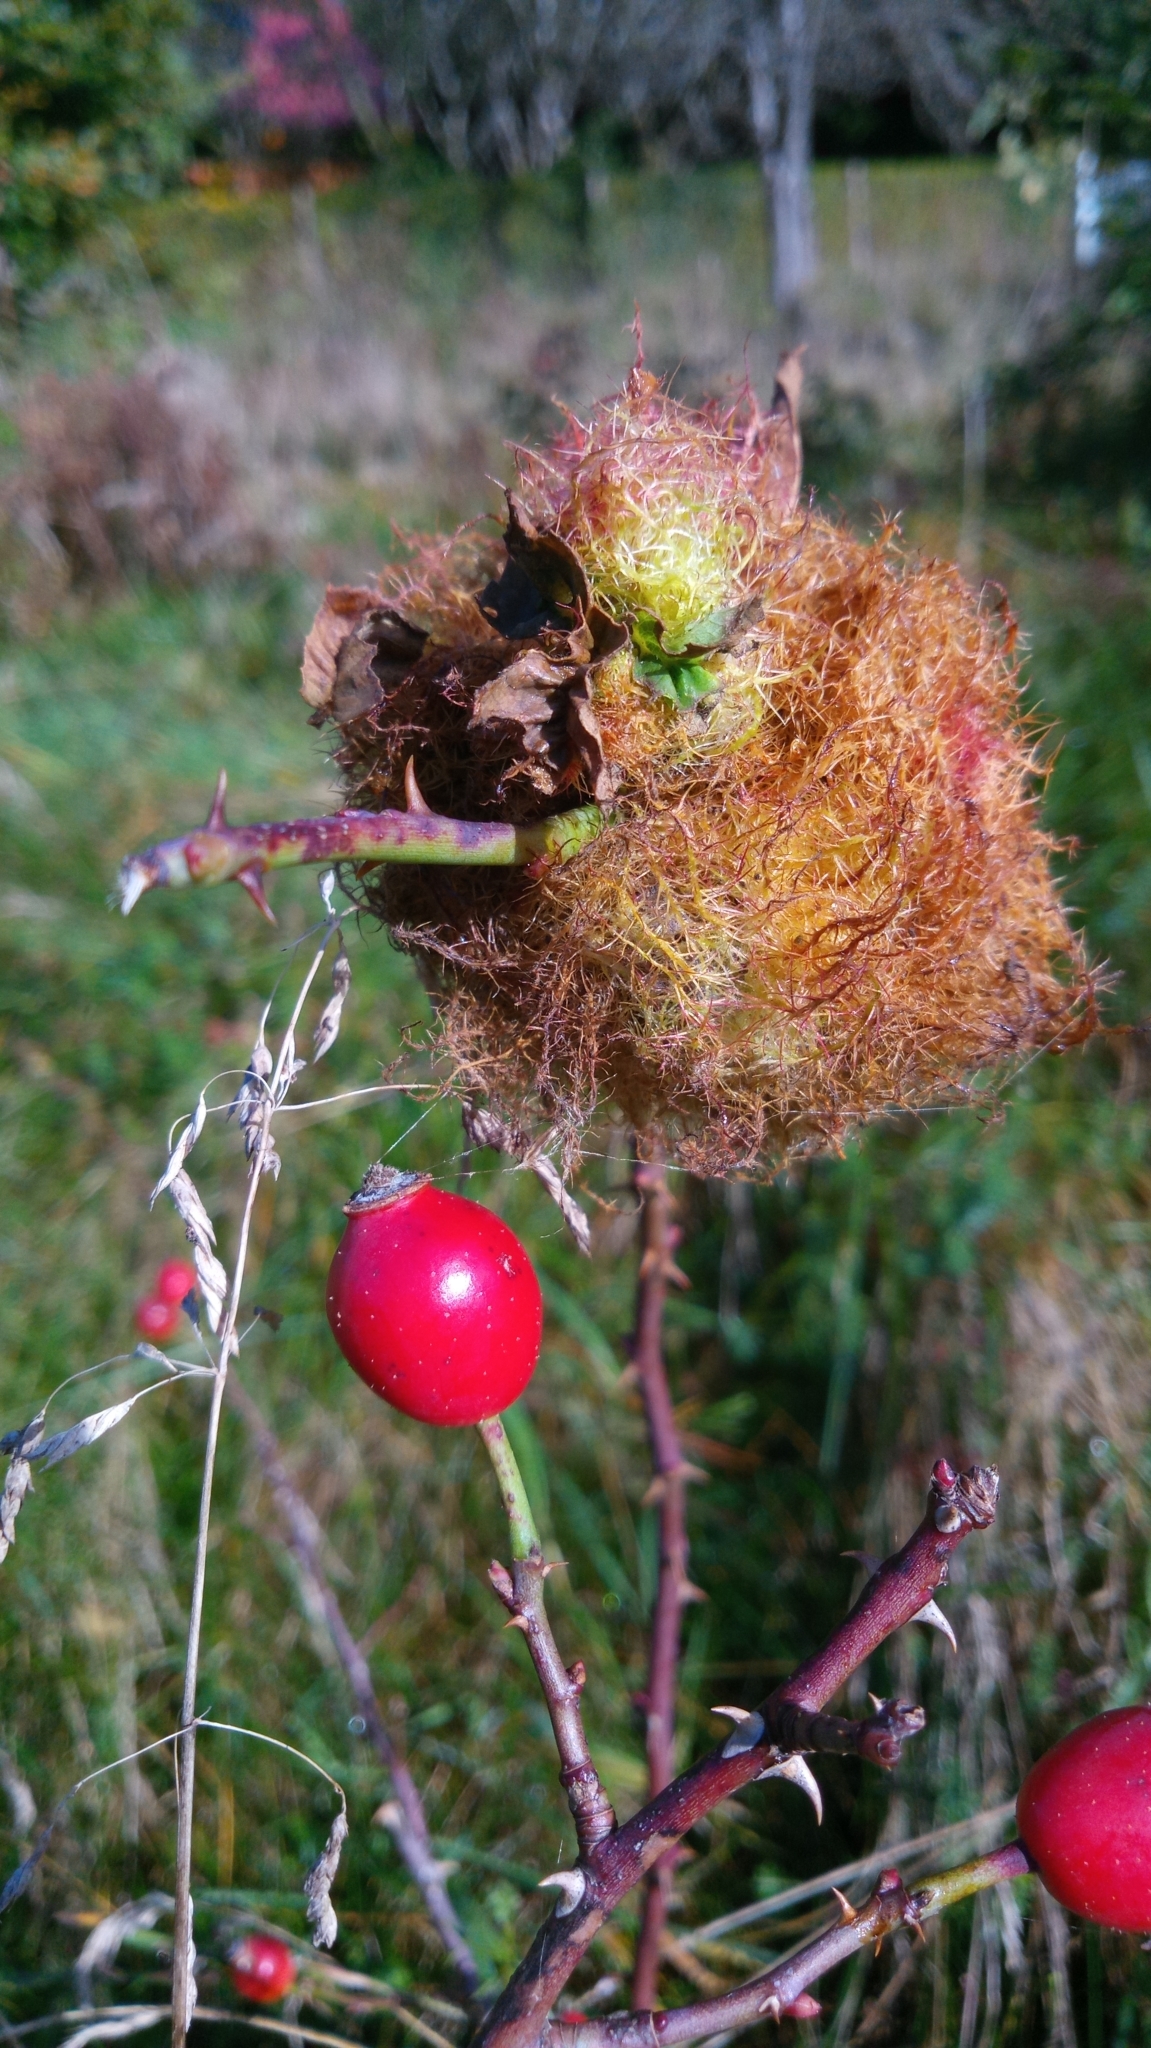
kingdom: Animalia
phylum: Arthropoda
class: Insecta
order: Hymenoptera
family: Cynipidae
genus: Diplolepis
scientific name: Diplolepis rosae
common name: Bedeguar gall
